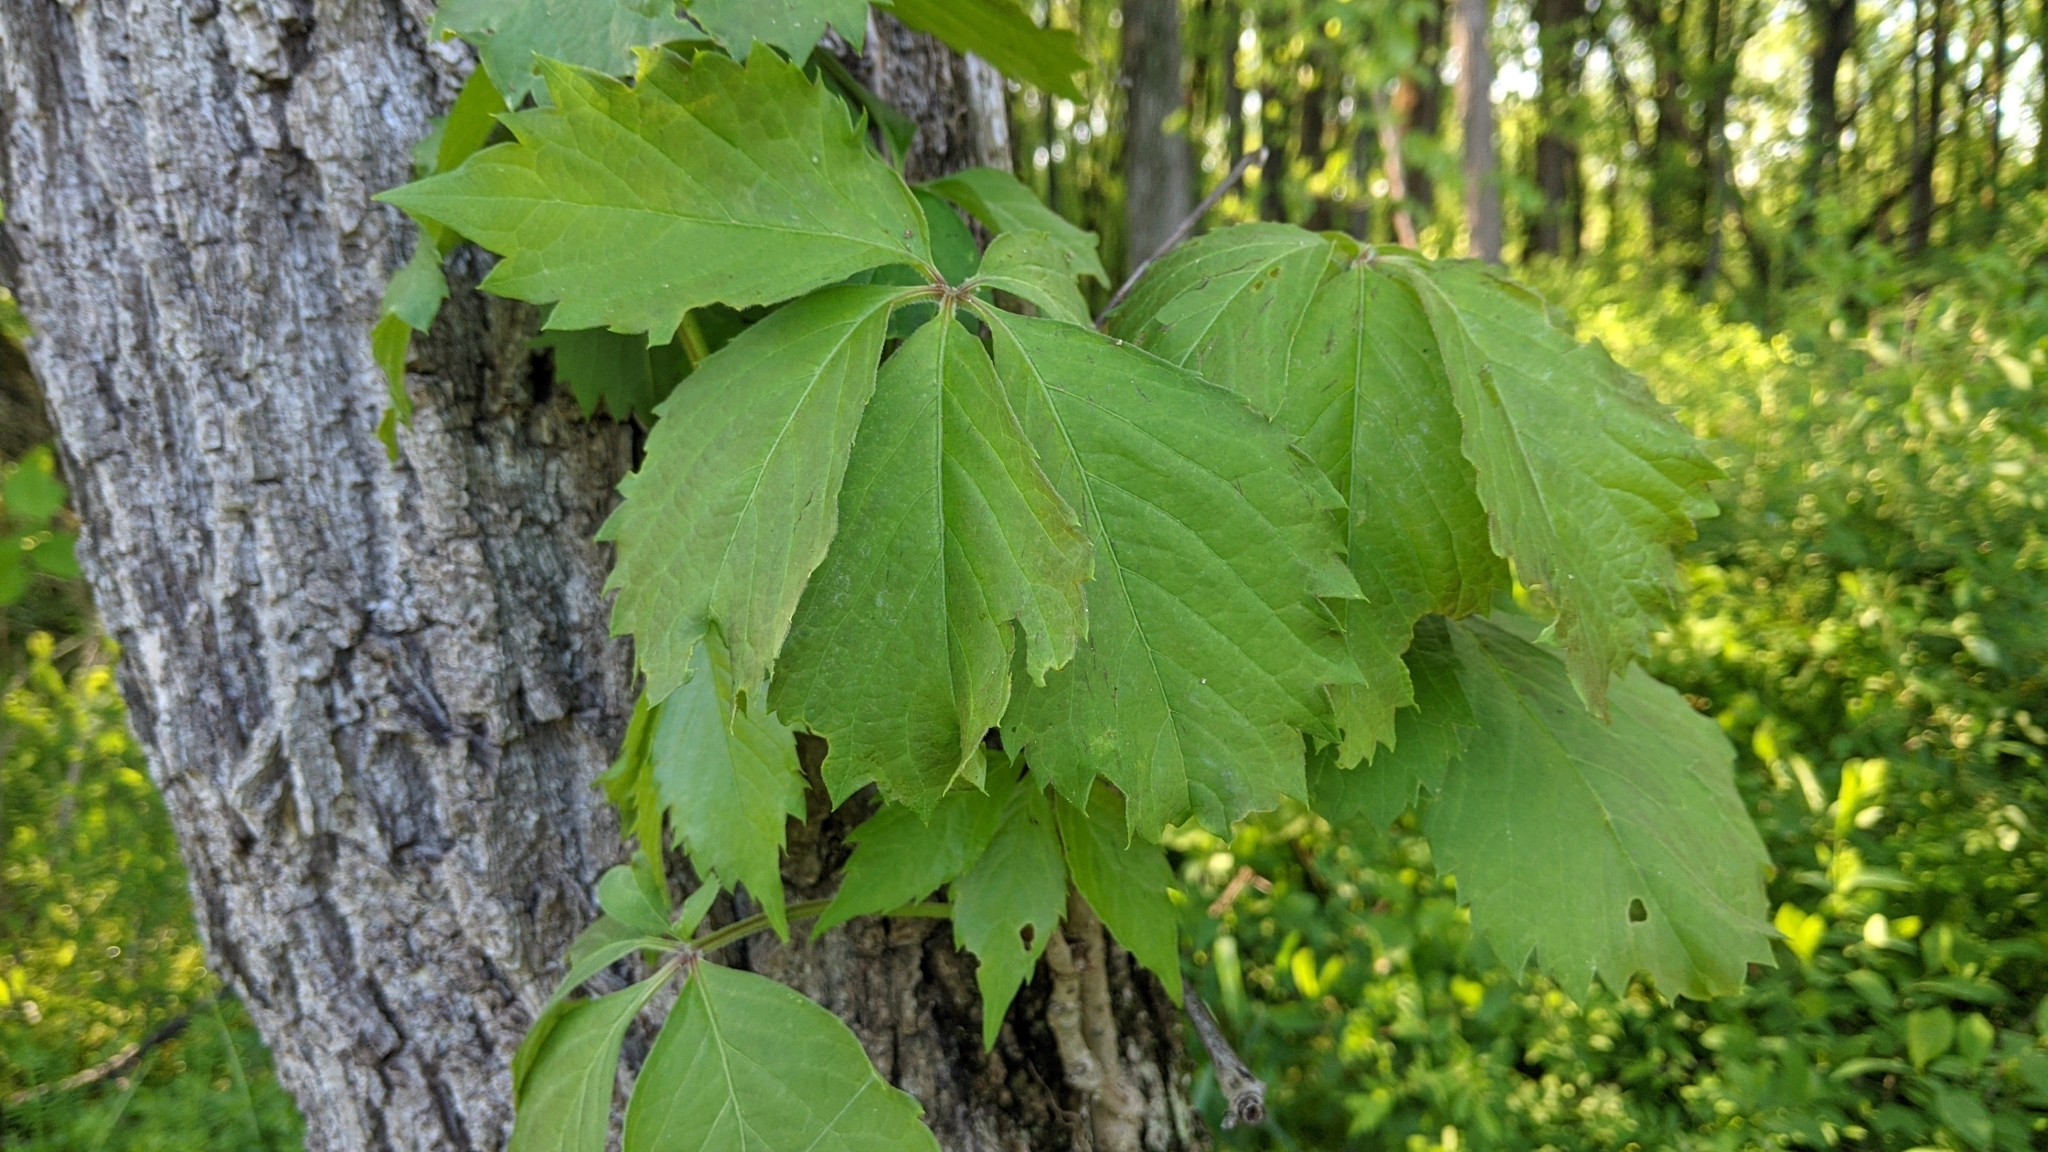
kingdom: Plantae
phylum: Tracheophyta
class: Magnoliopsida
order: Vitales
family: Vitaceae
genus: Parthenocissus
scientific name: Parthenocissus quinquefolia
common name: Virginia-creeper
